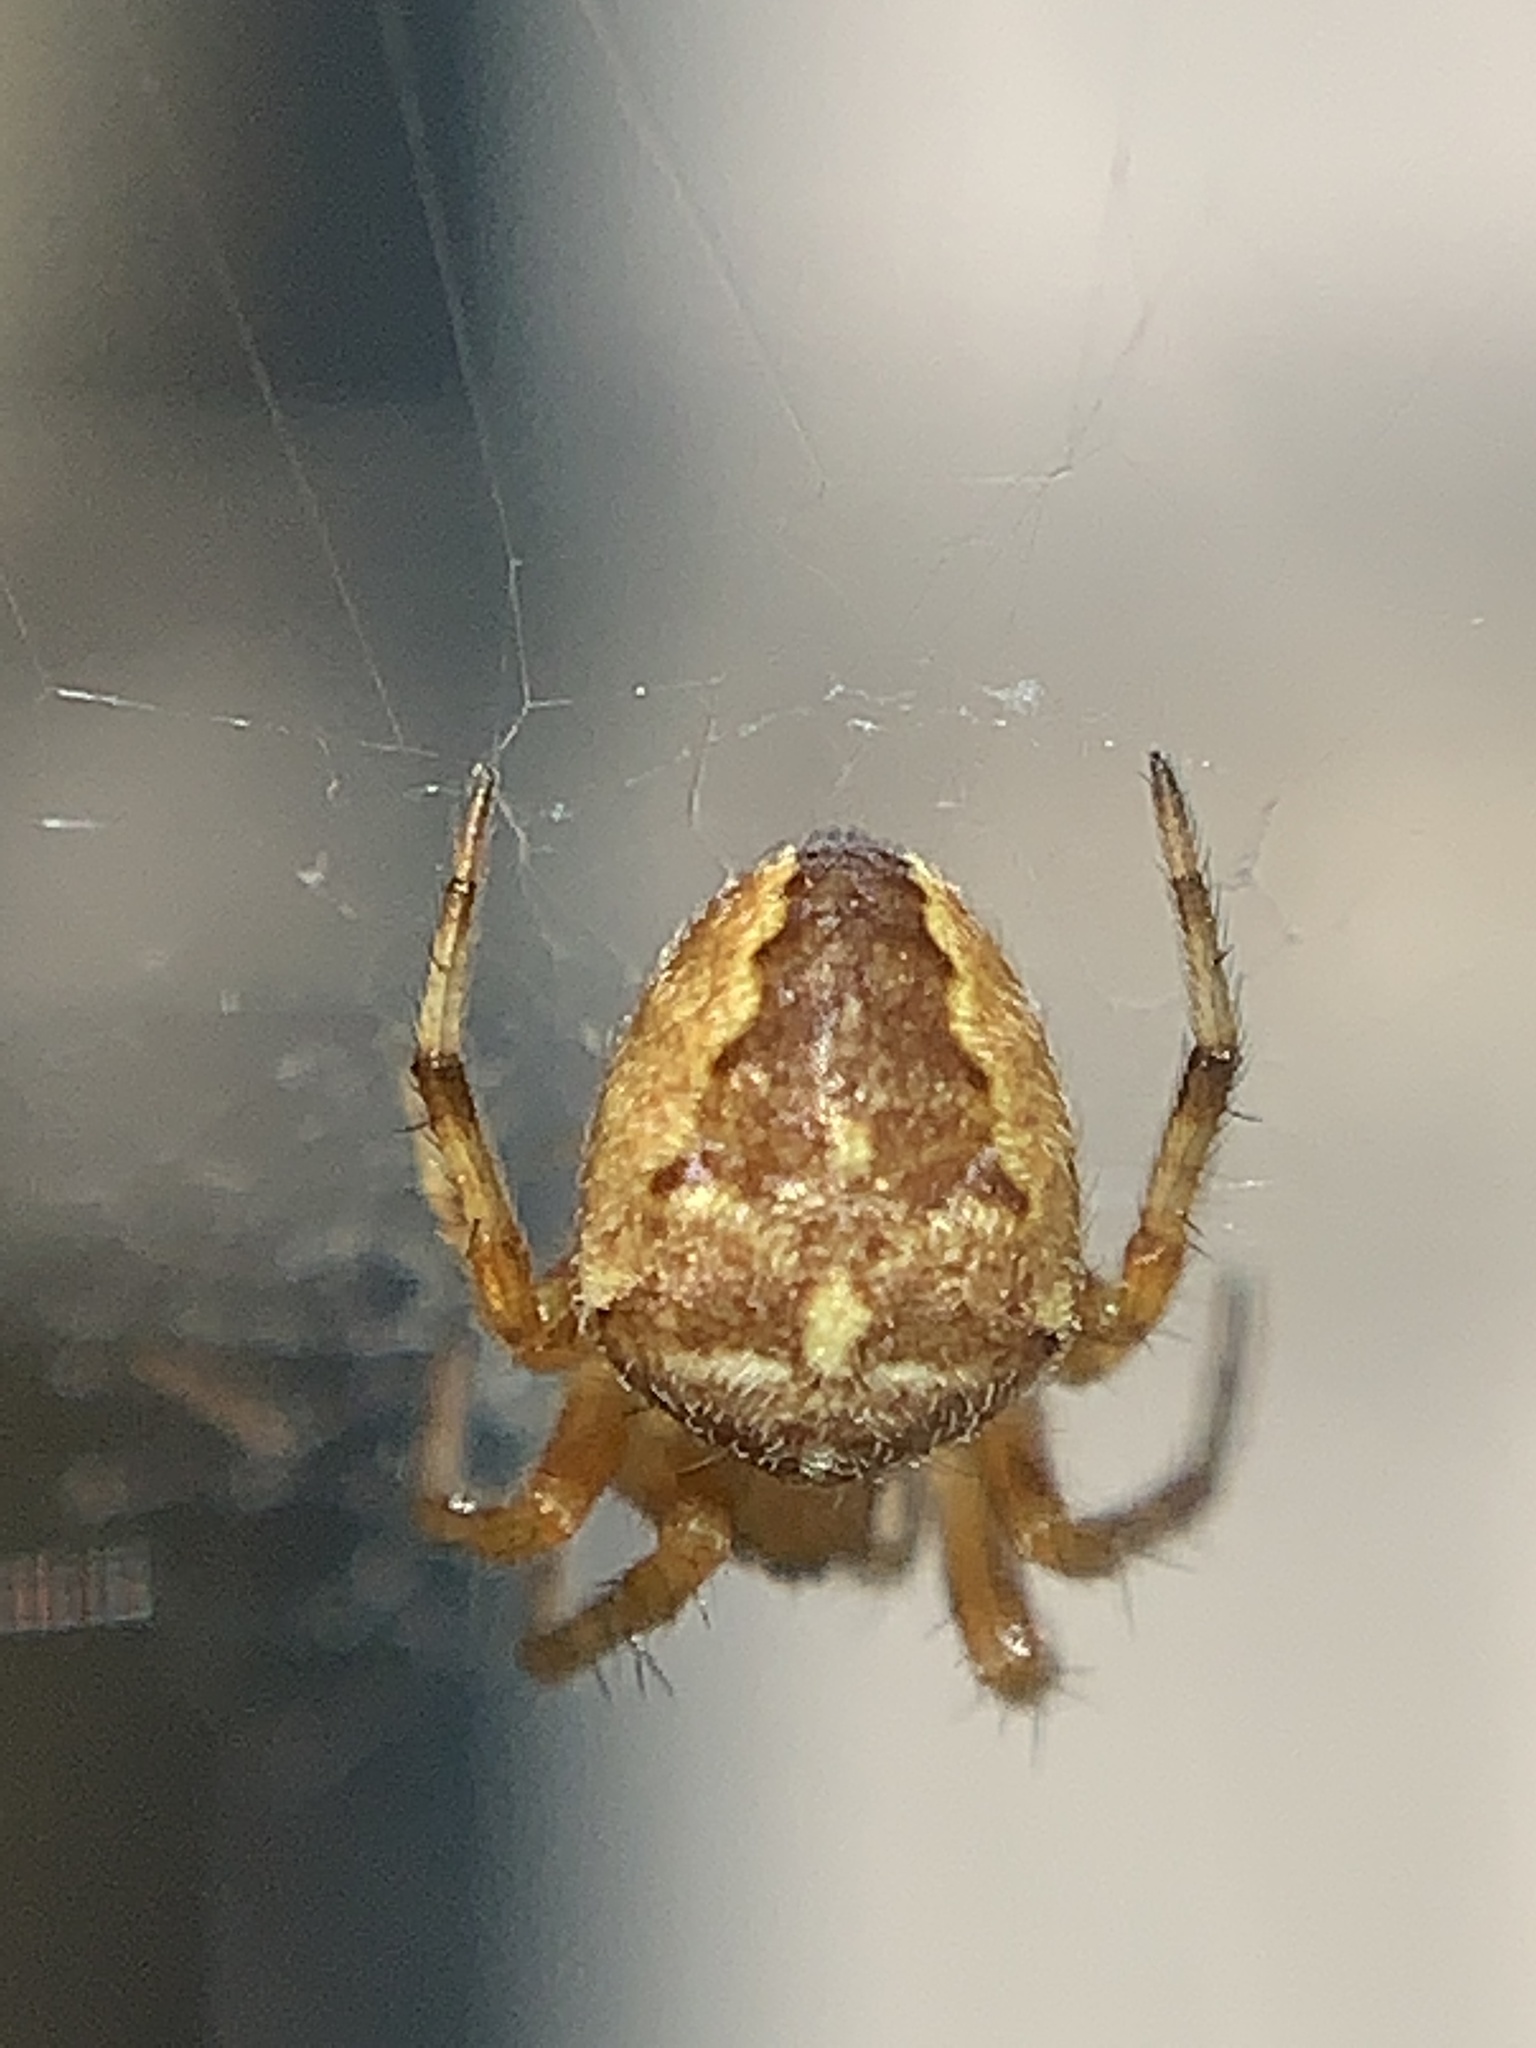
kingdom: Animalia
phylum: Arthropoda
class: Arachnida
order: Araneae
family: Araneidae
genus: Araneus
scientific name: Araneus diadematus
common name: Cross orbweaver
